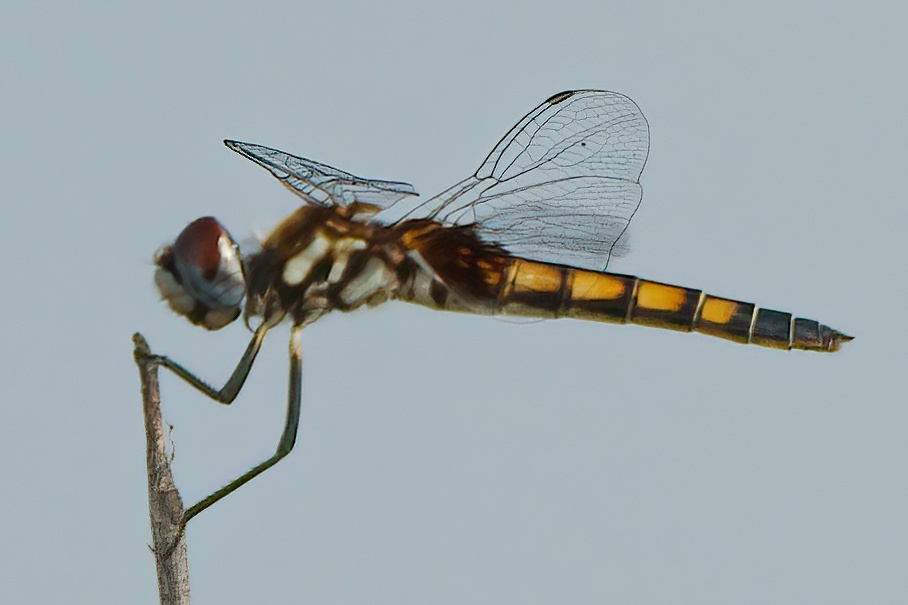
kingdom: Animalia
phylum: Arthropoda
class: Insecta
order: Odonata
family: Libellulidae
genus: Macrodiplax
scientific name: Macrodiplax balteata
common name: Marl pennant
